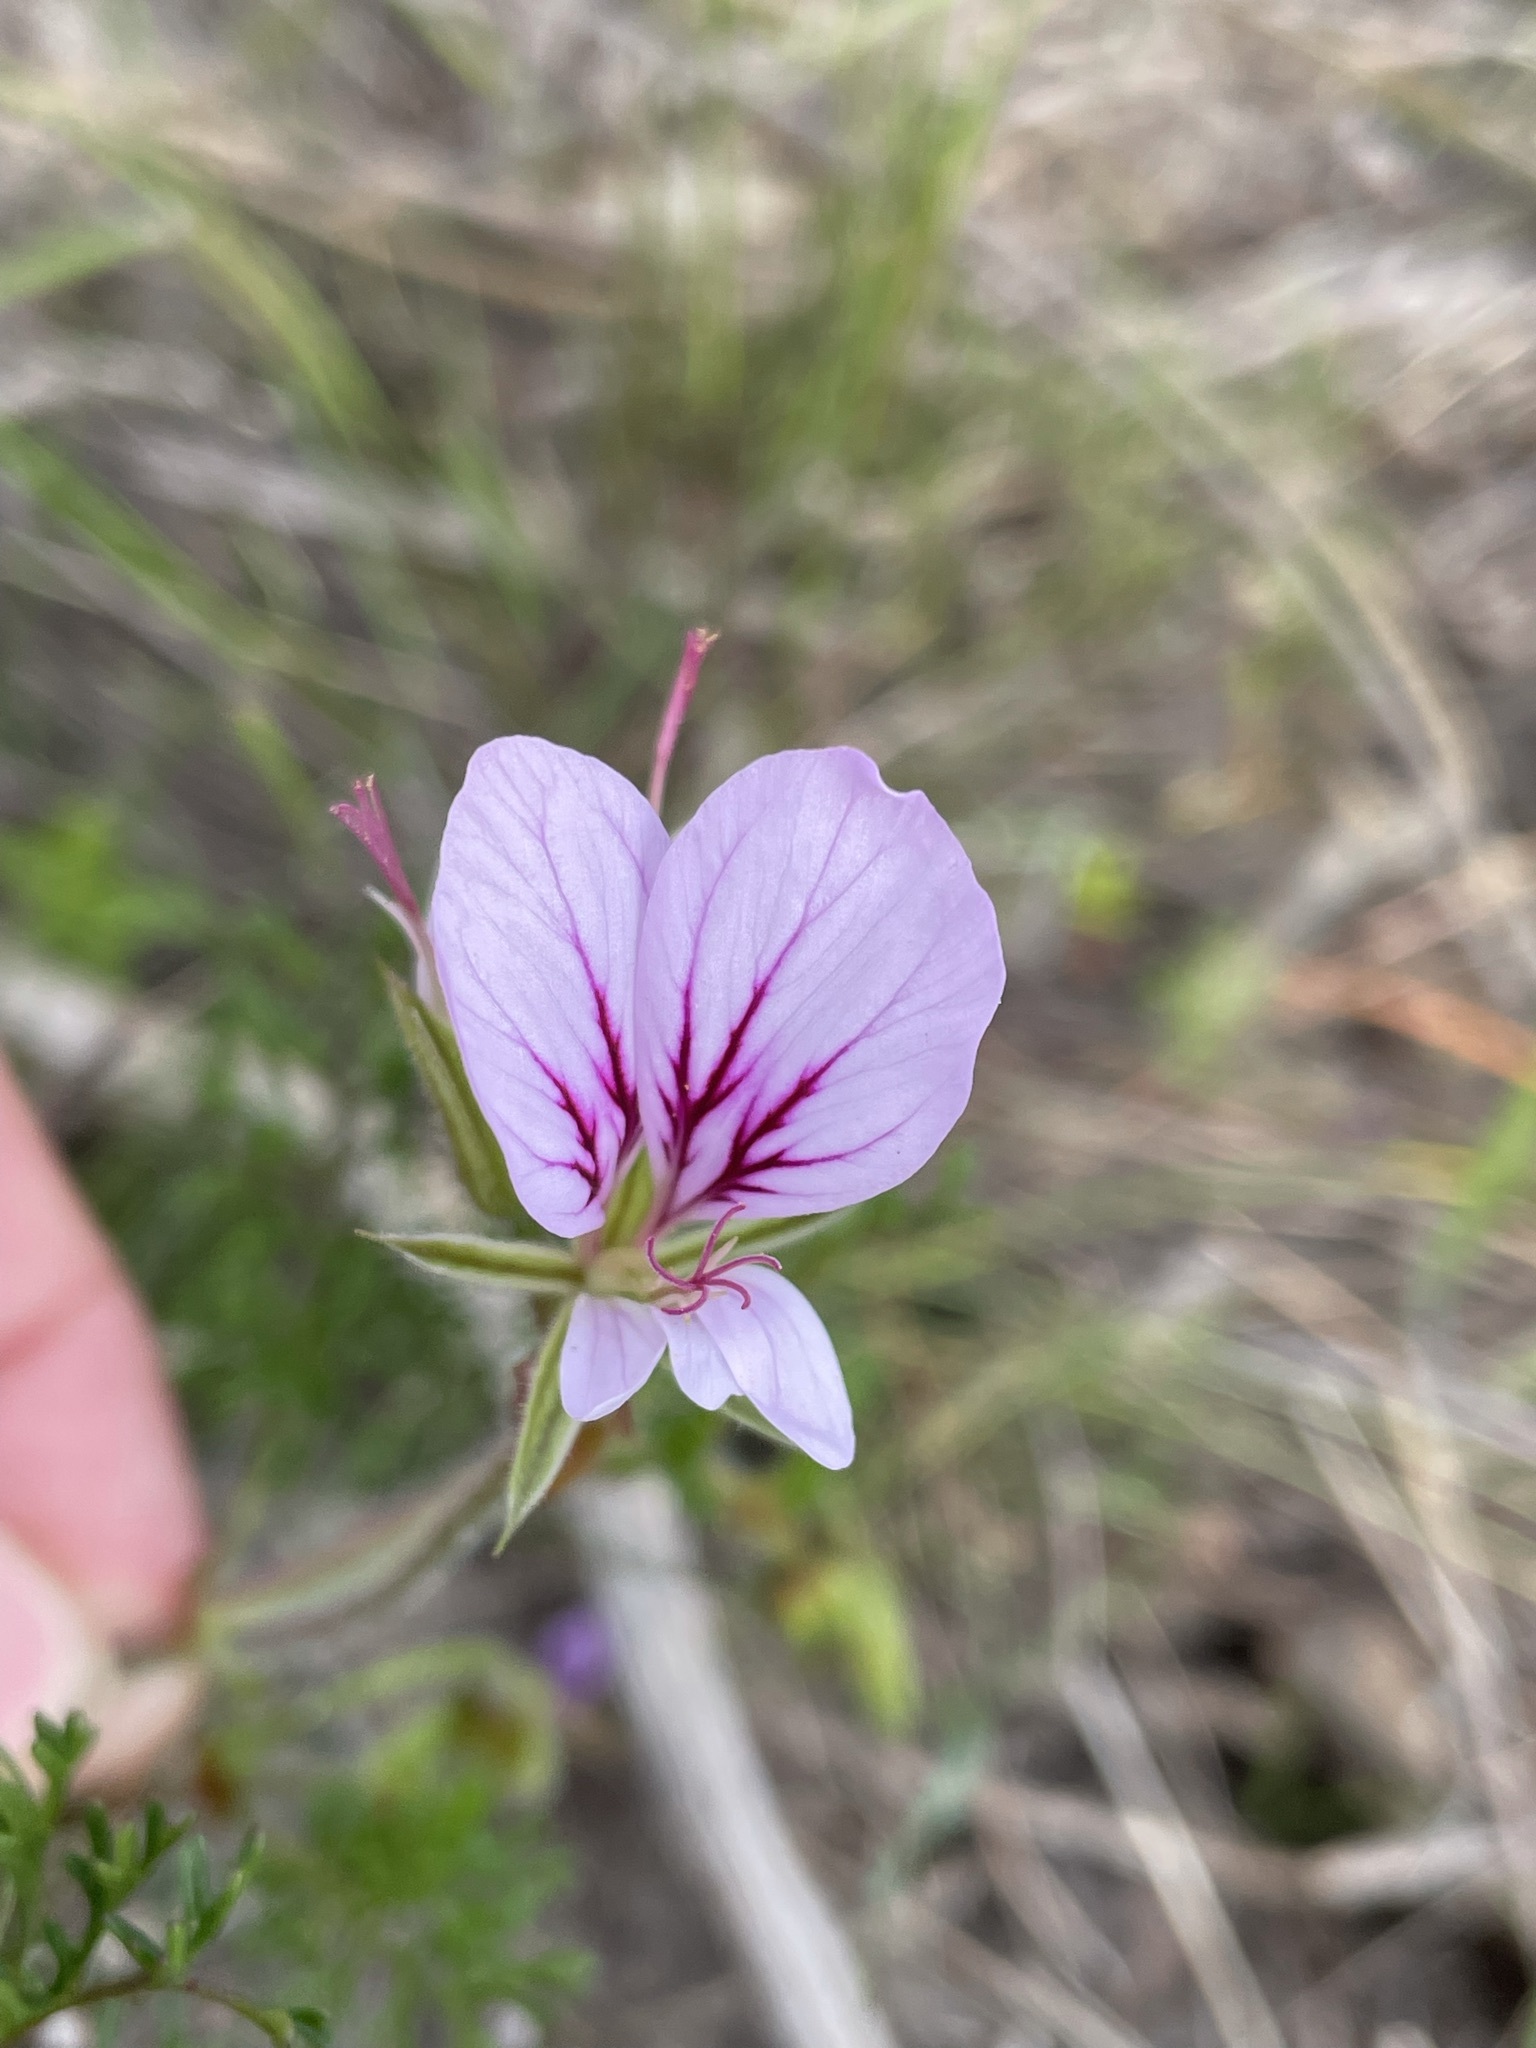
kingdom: Plantae
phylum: Tracheophyta
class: Magnoliopsida
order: Geraniales
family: Geraniaceae
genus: Pelargonium
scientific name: Pelargonium myrrhifolium
